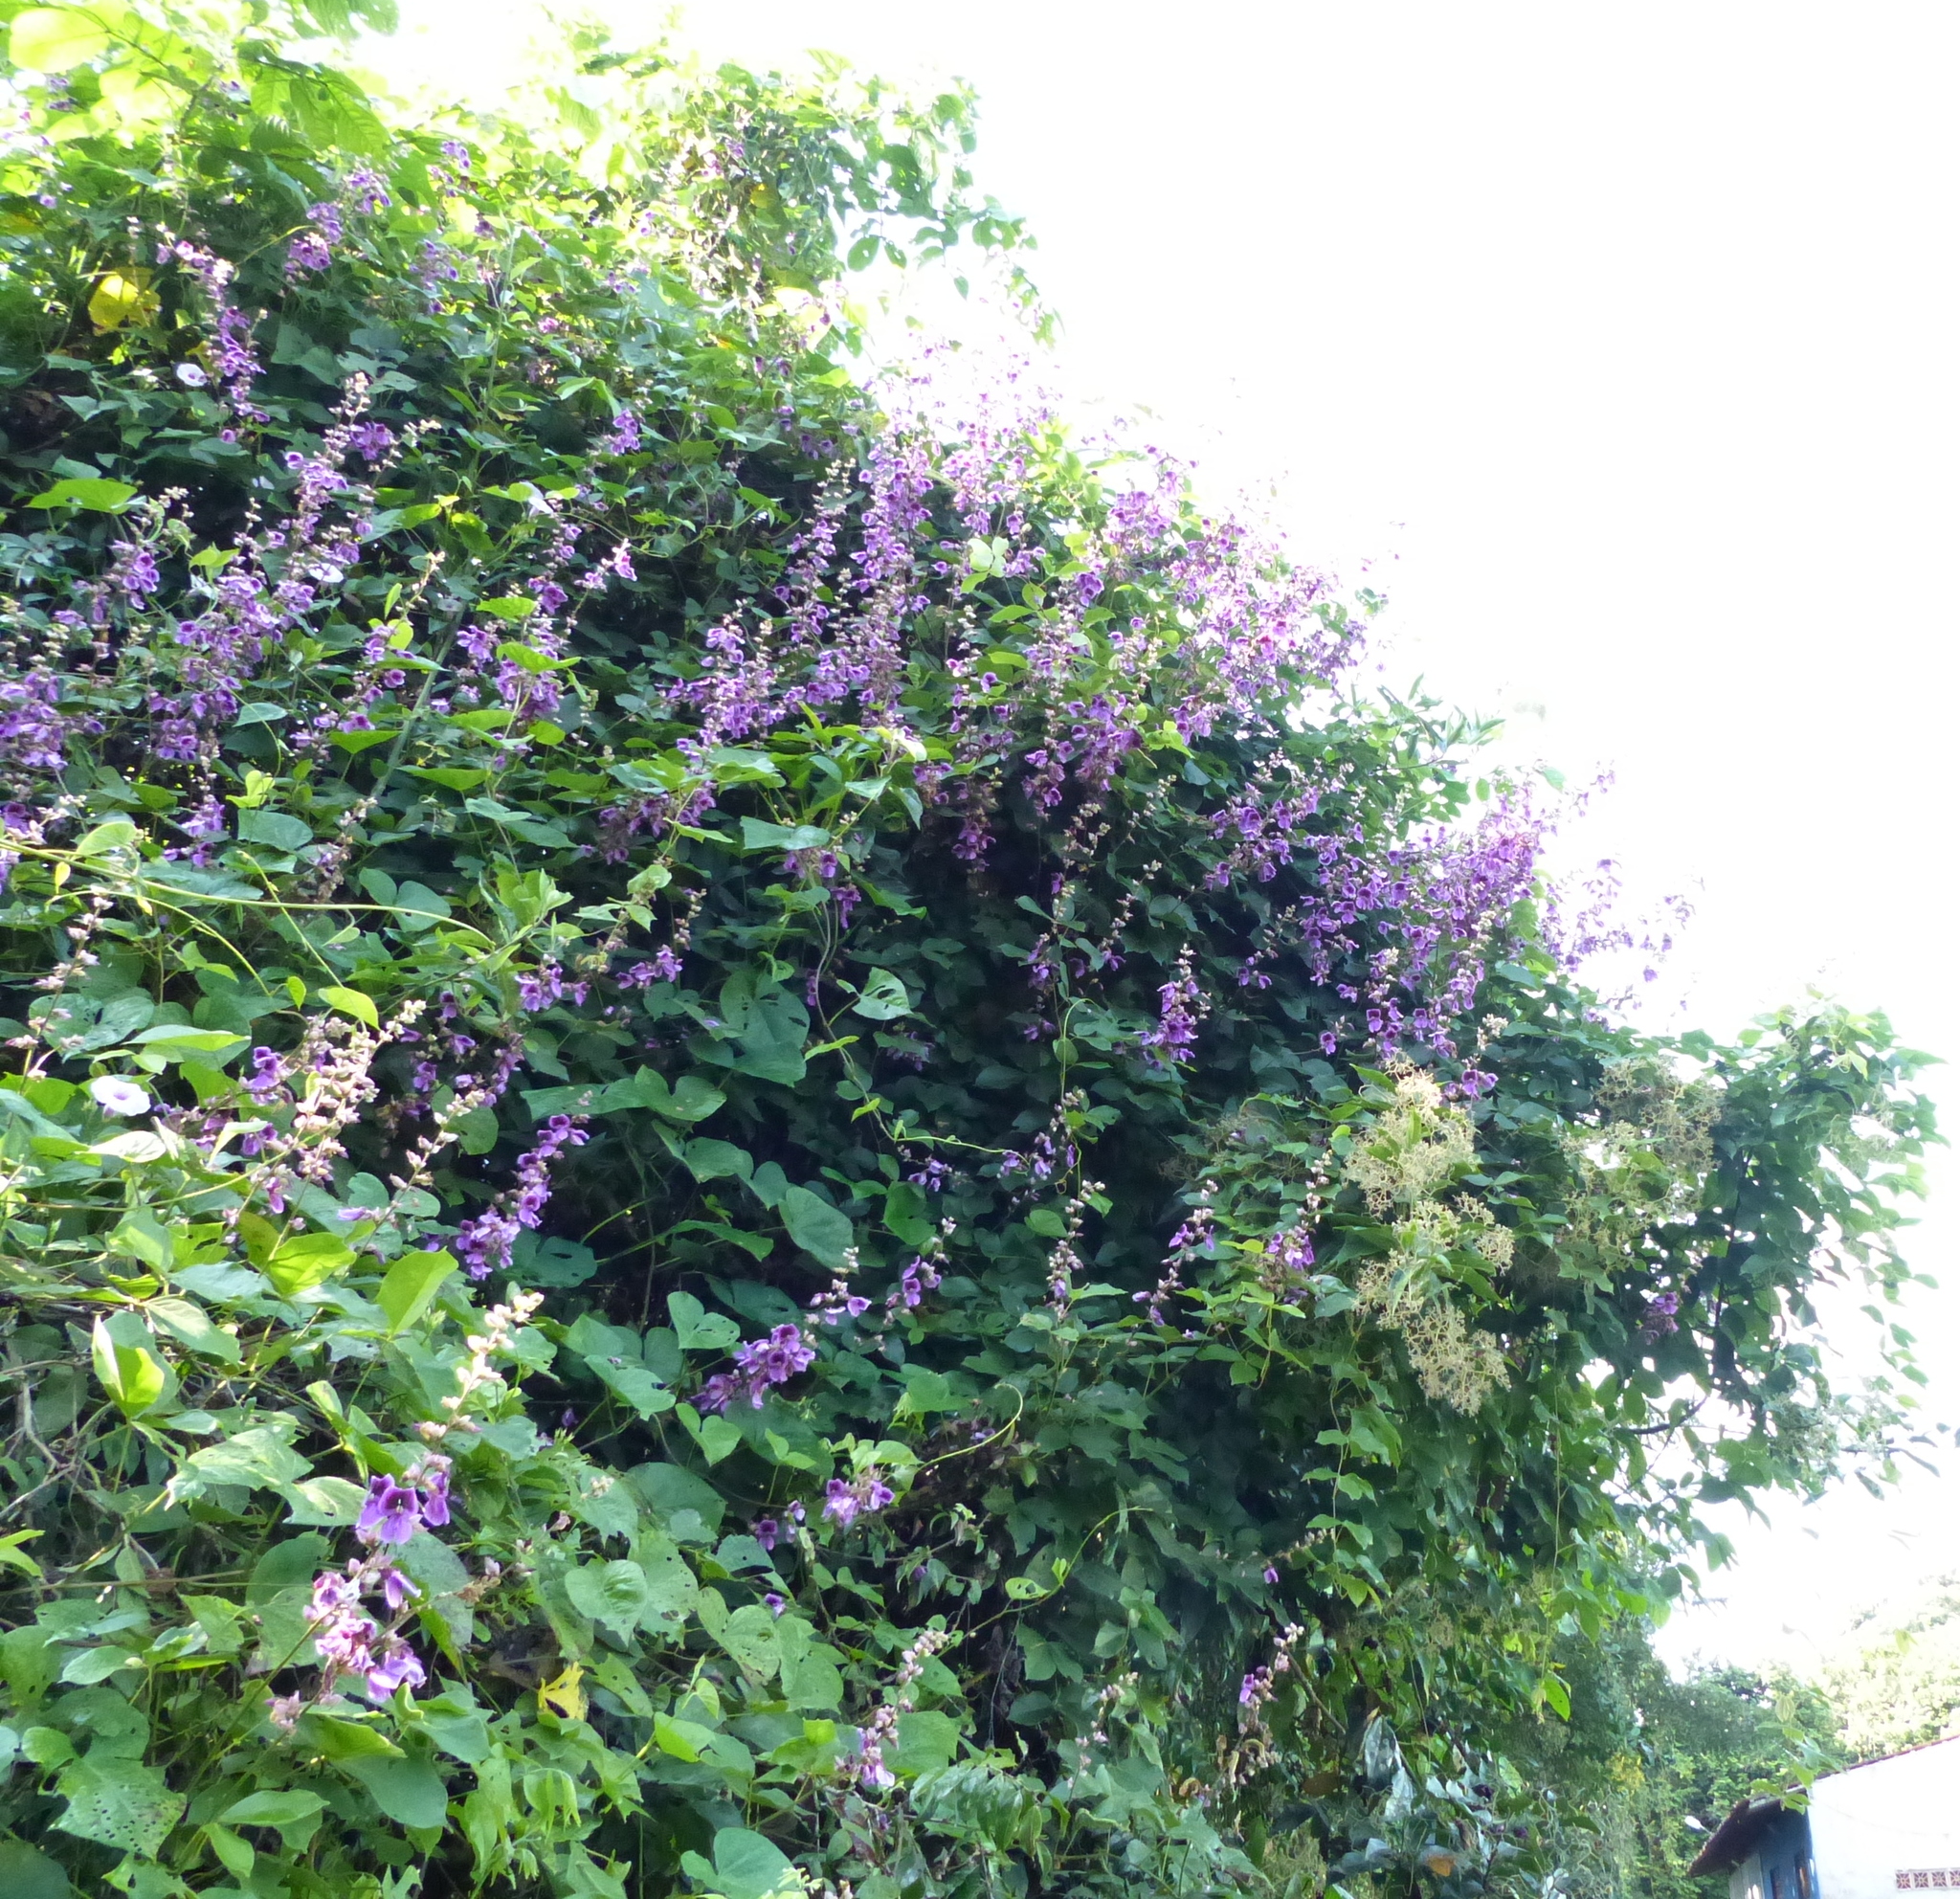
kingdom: Plantae
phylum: Tracheophyta
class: Magnoliopsida
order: Fabales
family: Fabaceae
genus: Dioclea
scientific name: Dioclea virgata
